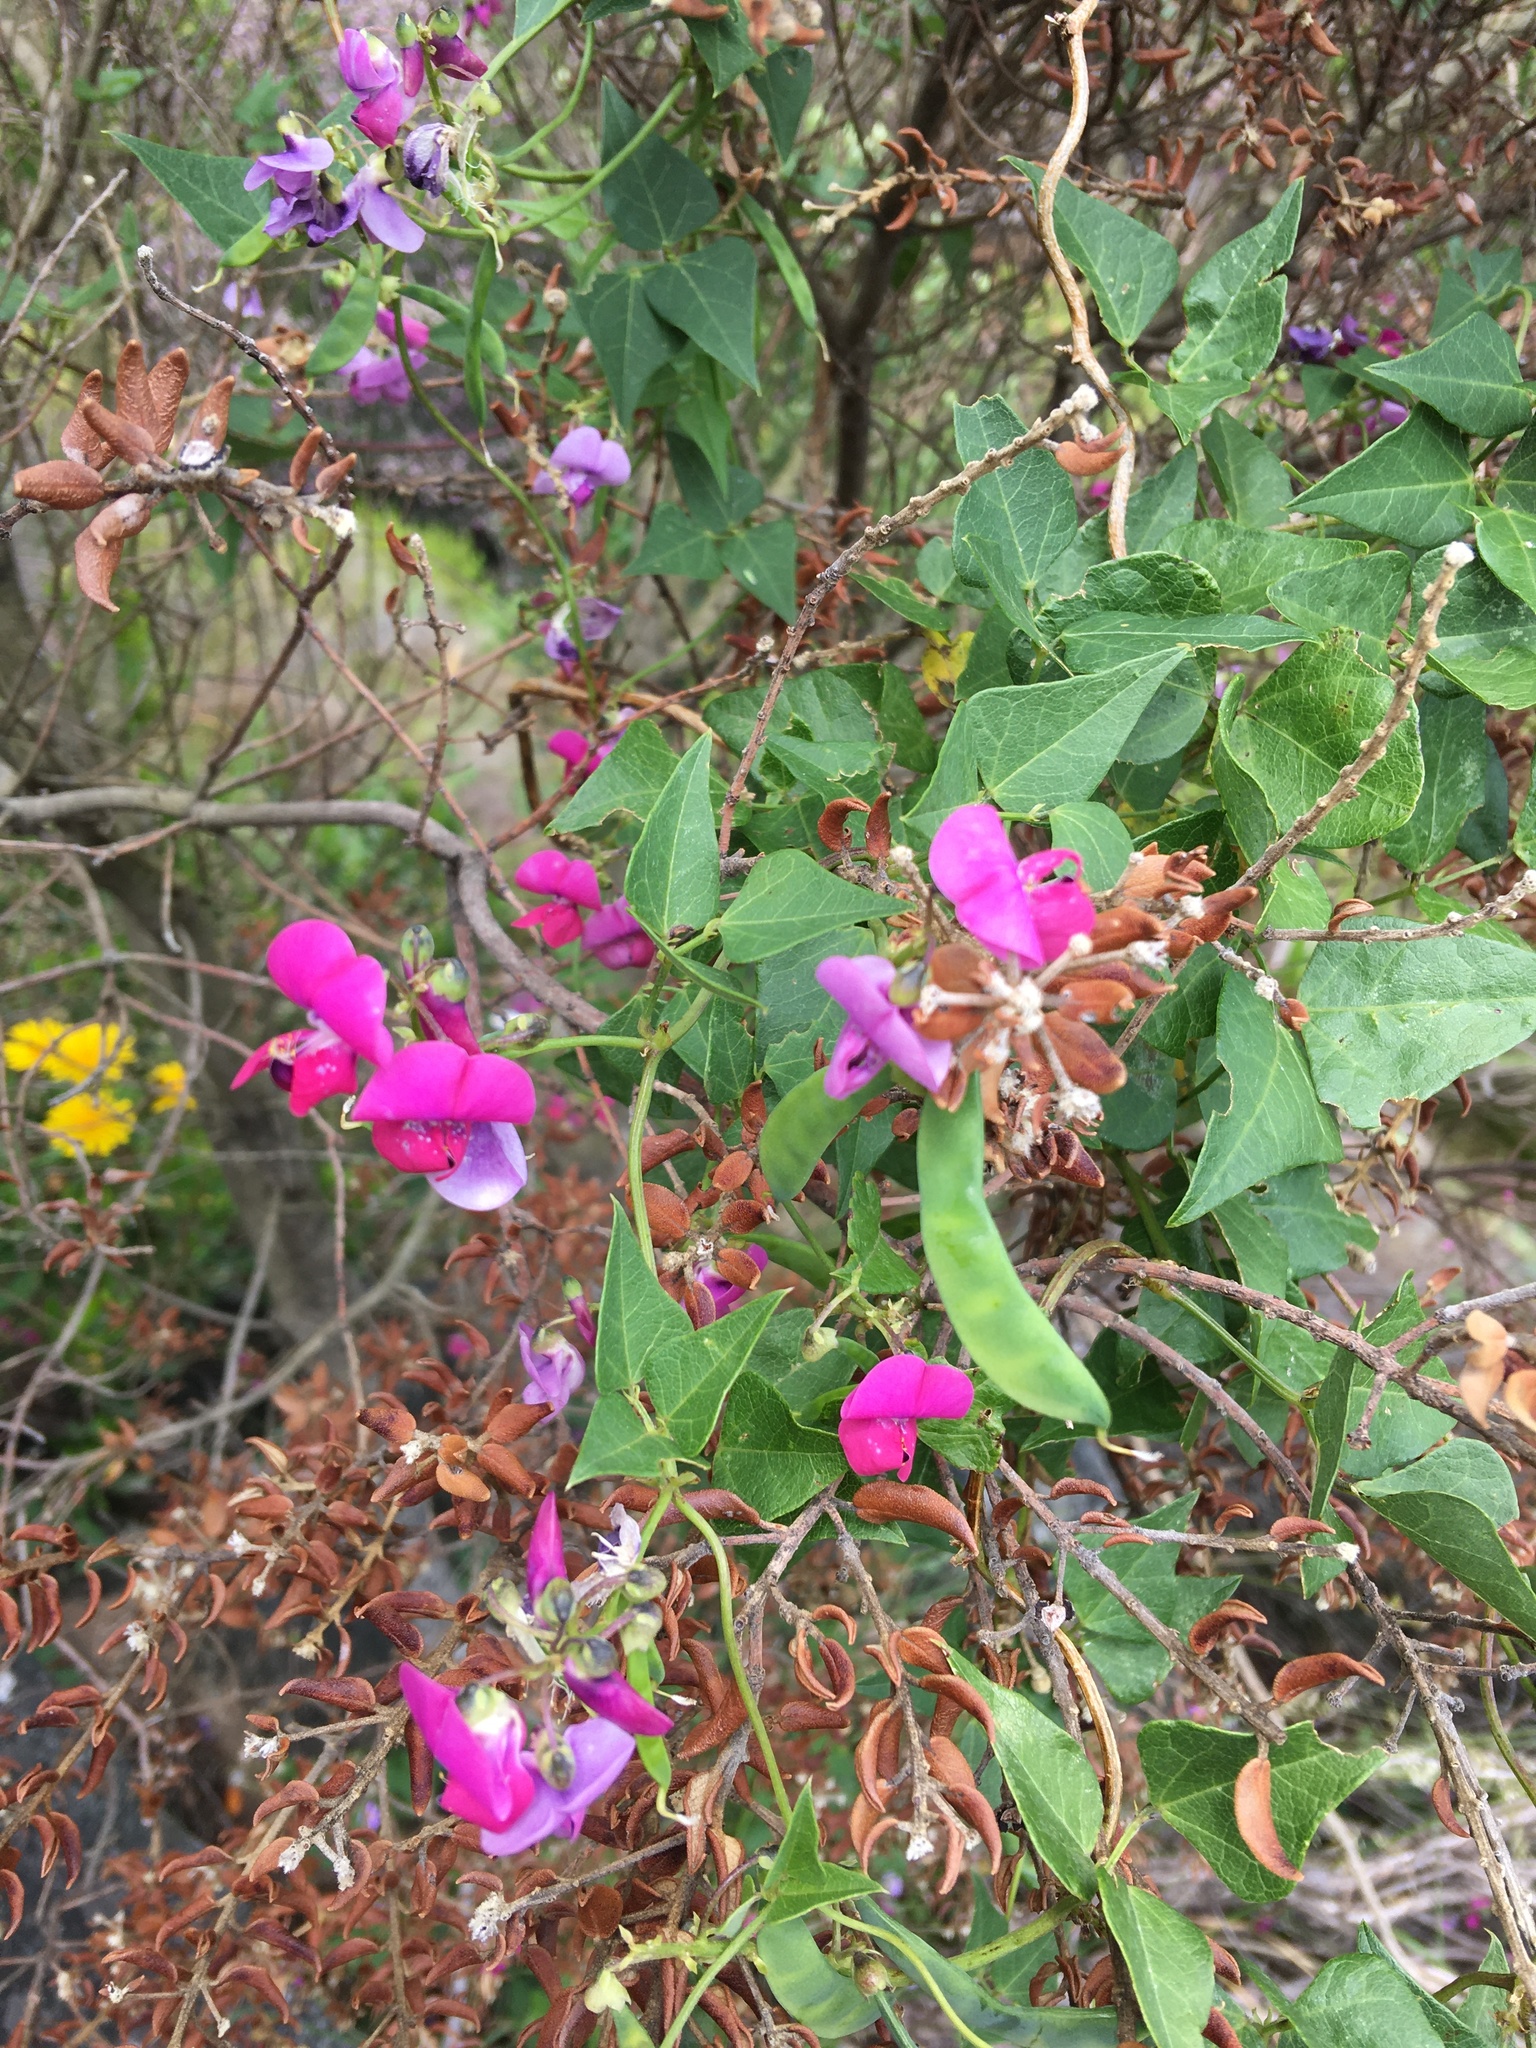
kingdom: Plantae
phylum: Tracheophyta
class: Magnoliopsida
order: Fabales
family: Fabaceae
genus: Dipogon
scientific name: Dipogon lignosus
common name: Okie bean
